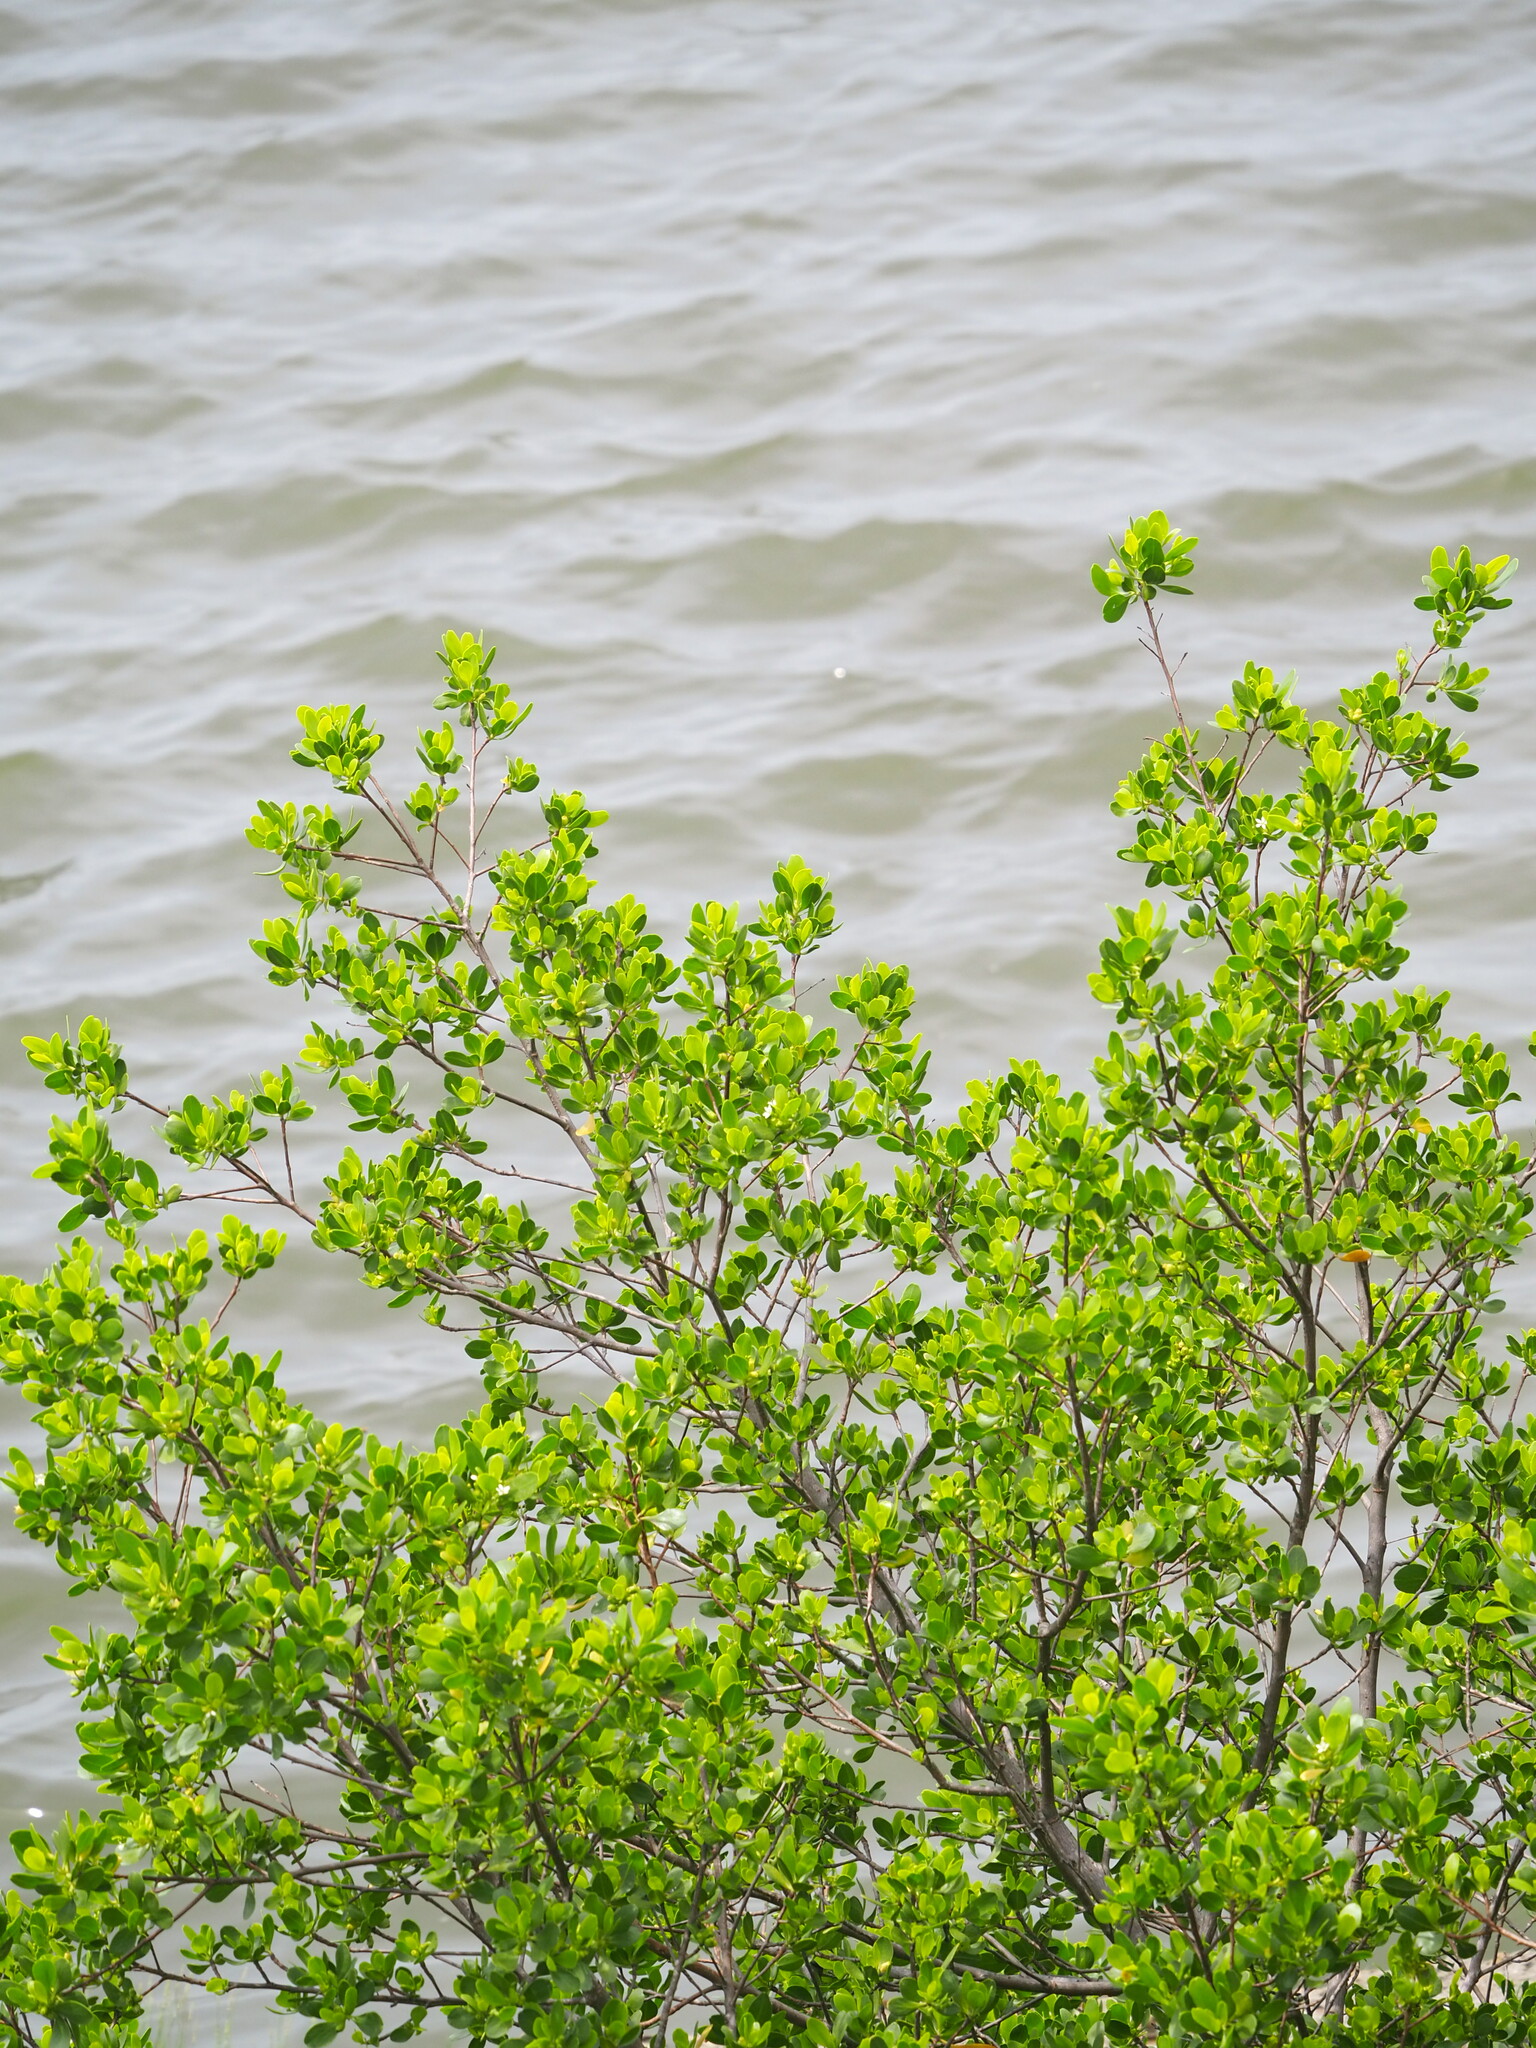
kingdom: Plantae
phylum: Tracheophyta
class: Magnoliopsida
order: Myrtales
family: Combretaceae
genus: Lumnitzera
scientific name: Lumnitzera racemosa
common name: White-flowered black mangrove
